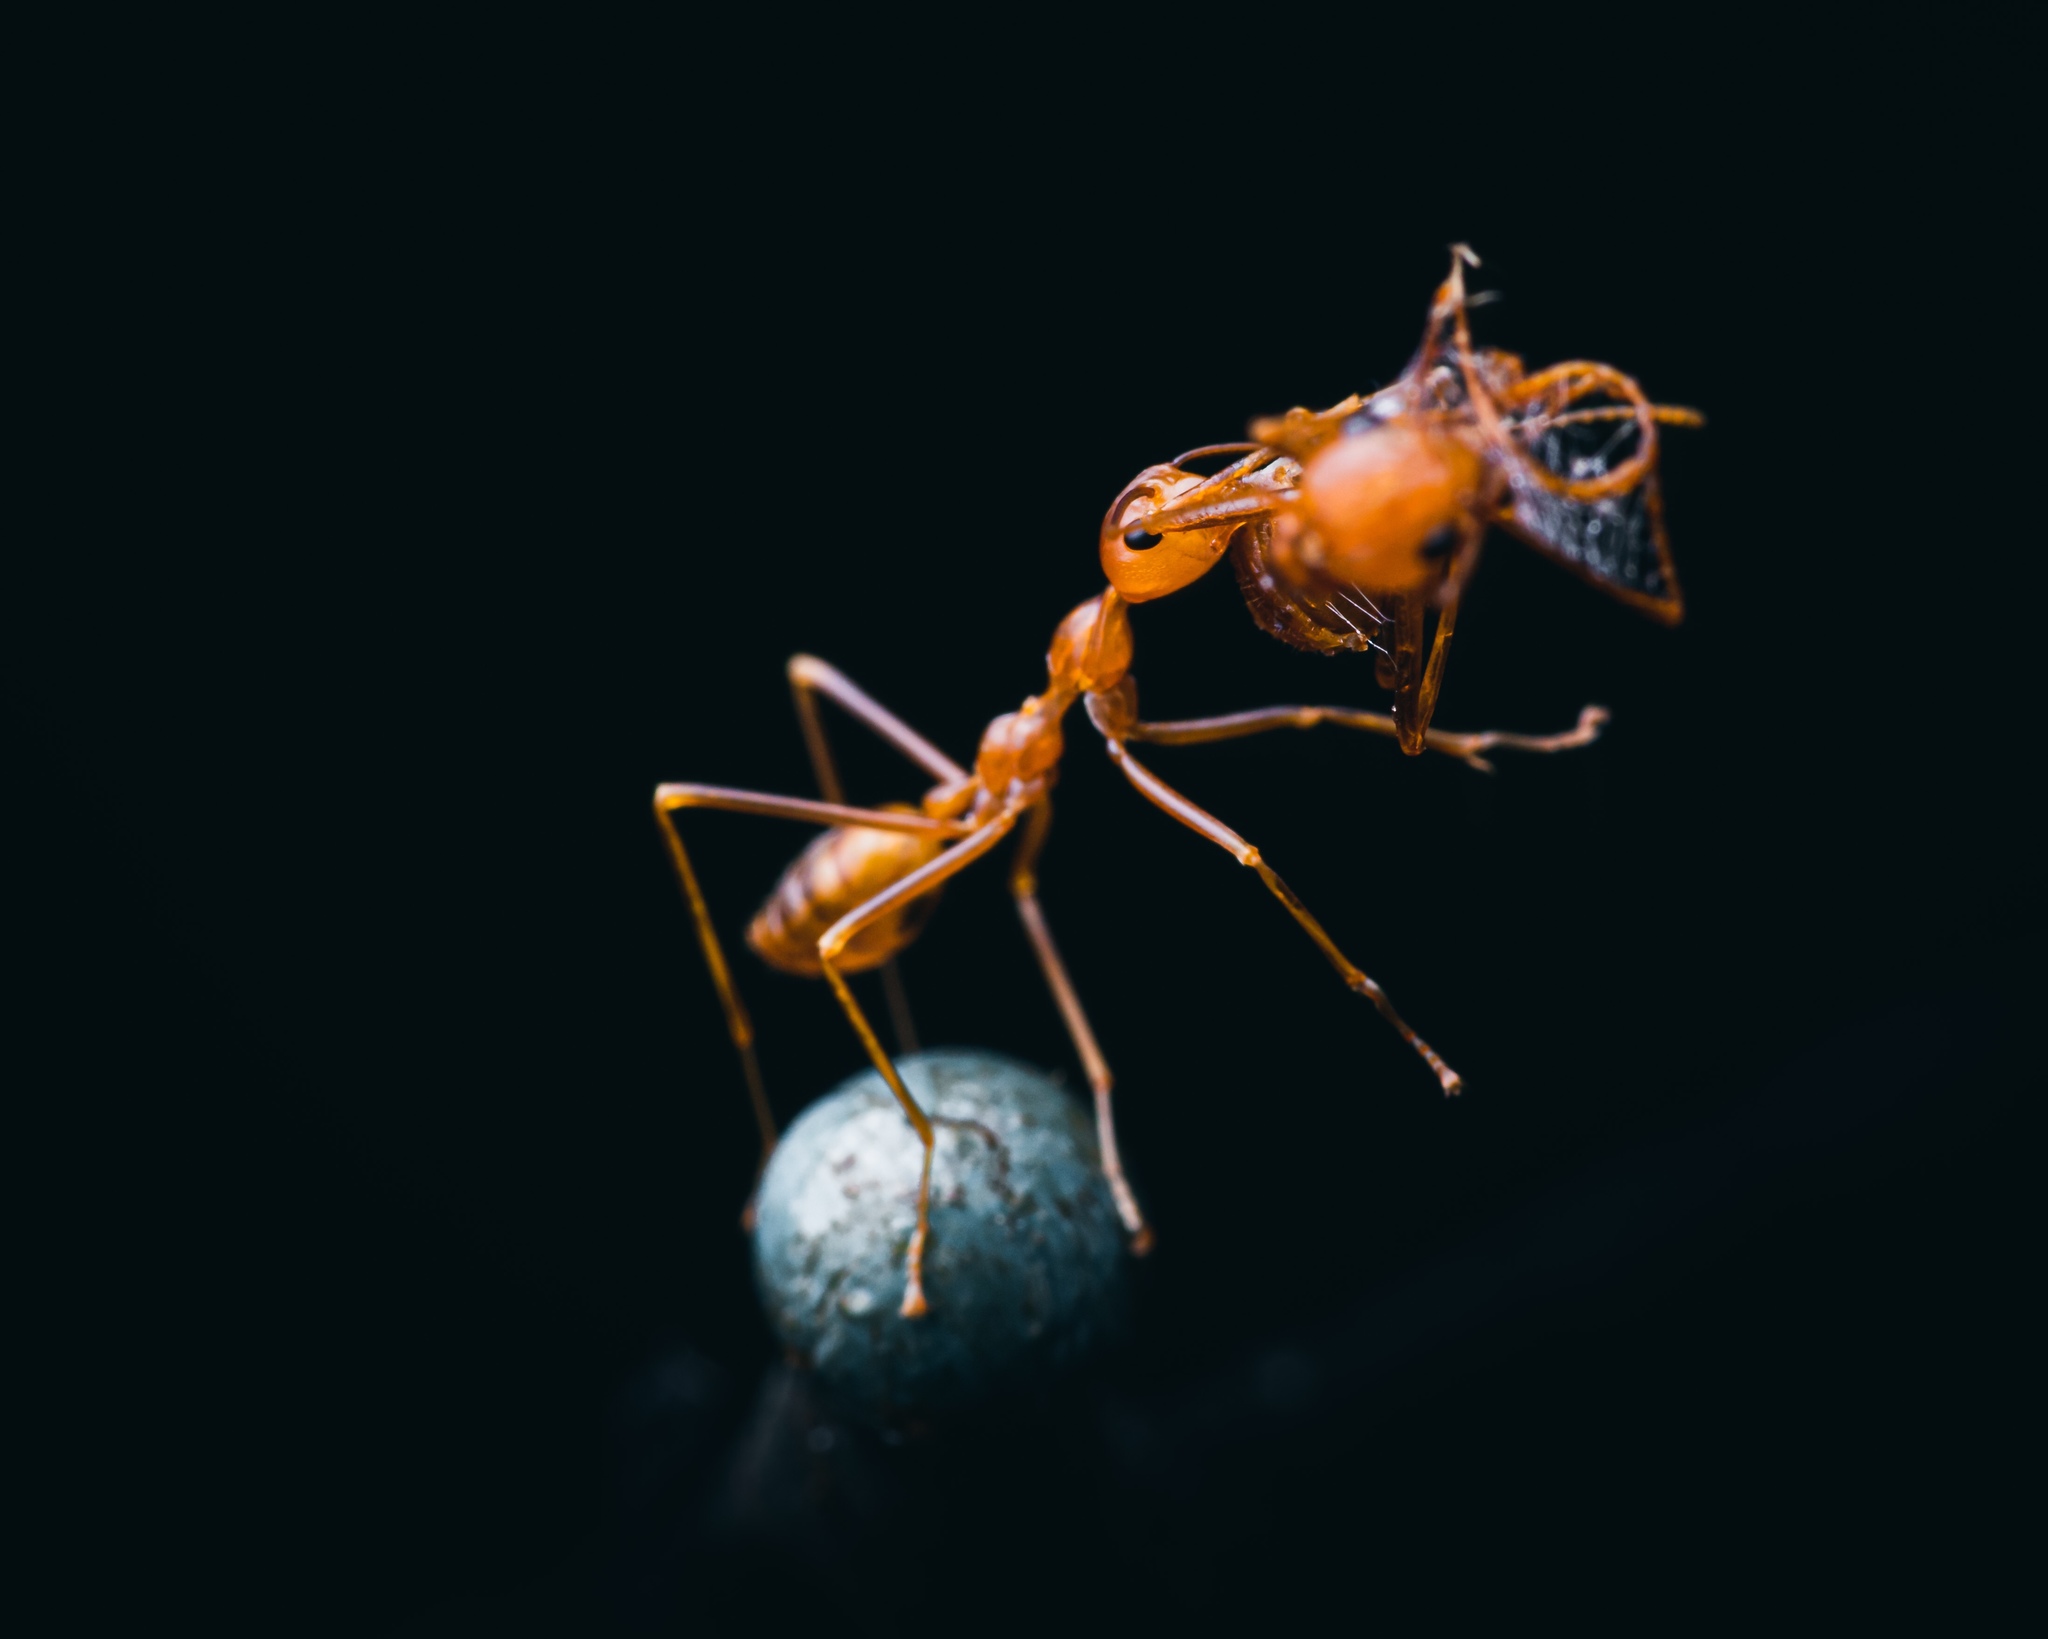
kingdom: Animalia
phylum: Arthropoda
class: Insecta
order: Hymenoptera
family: Formicidae
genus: Oecophylla
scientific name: Oecophylla smaragdina
